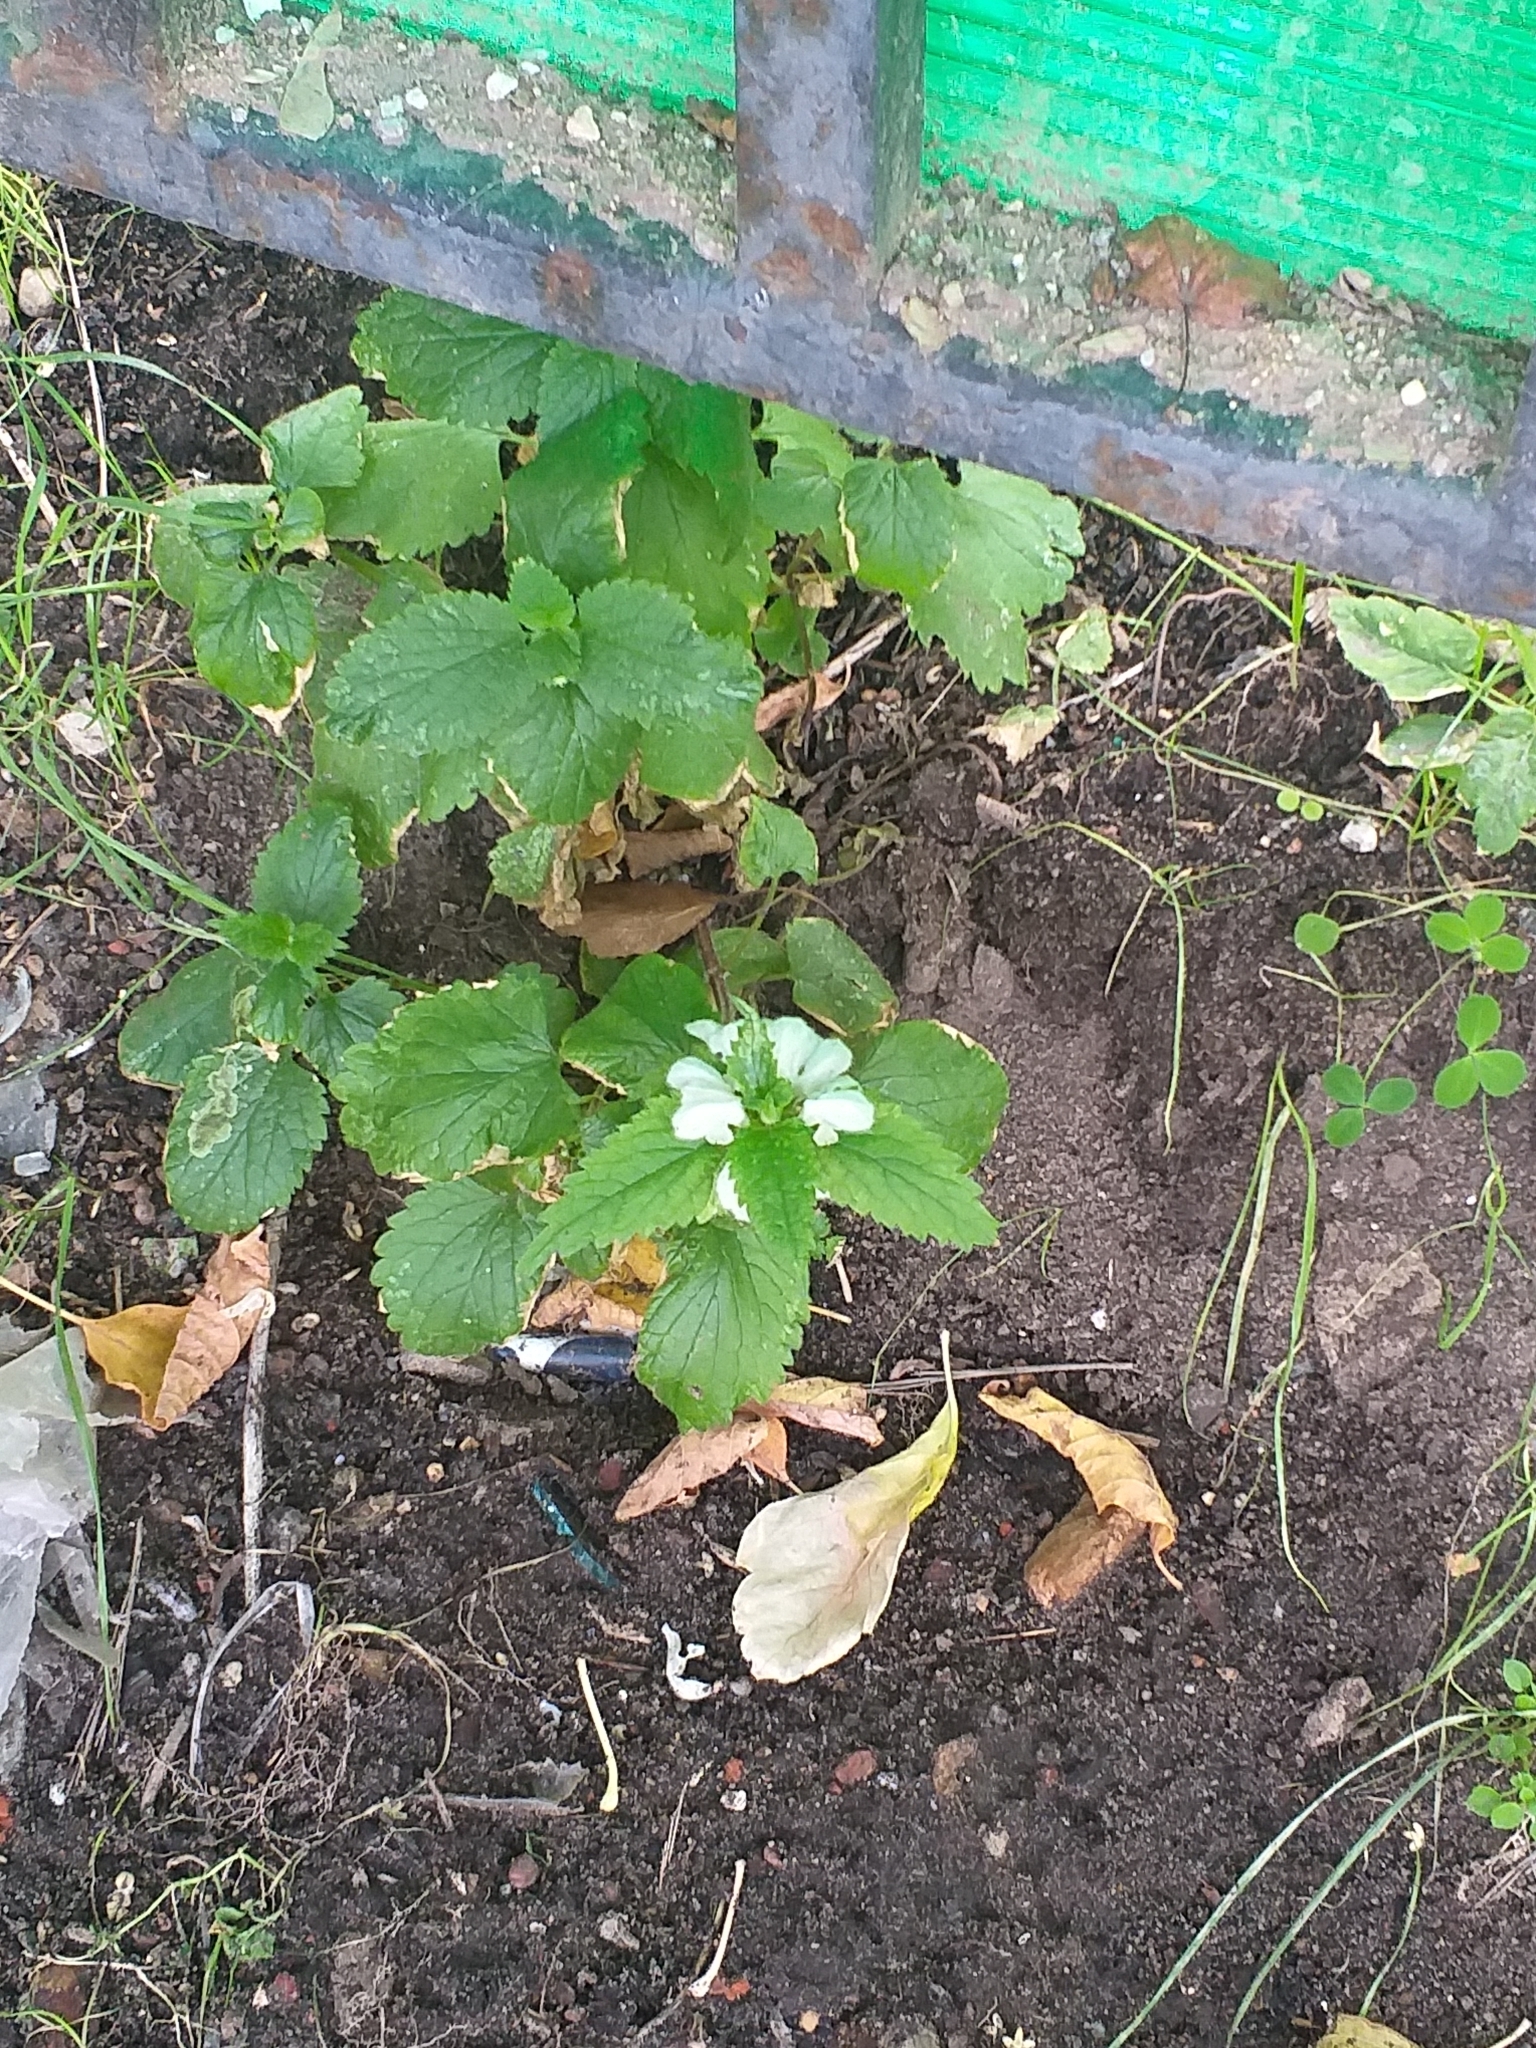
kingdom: Plantae
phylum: Tracheophyta
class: Magnoliopsida
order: Lamiales
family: Lamiaceae
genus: Lamium
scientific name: Lamium album
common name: White dead-nettle
